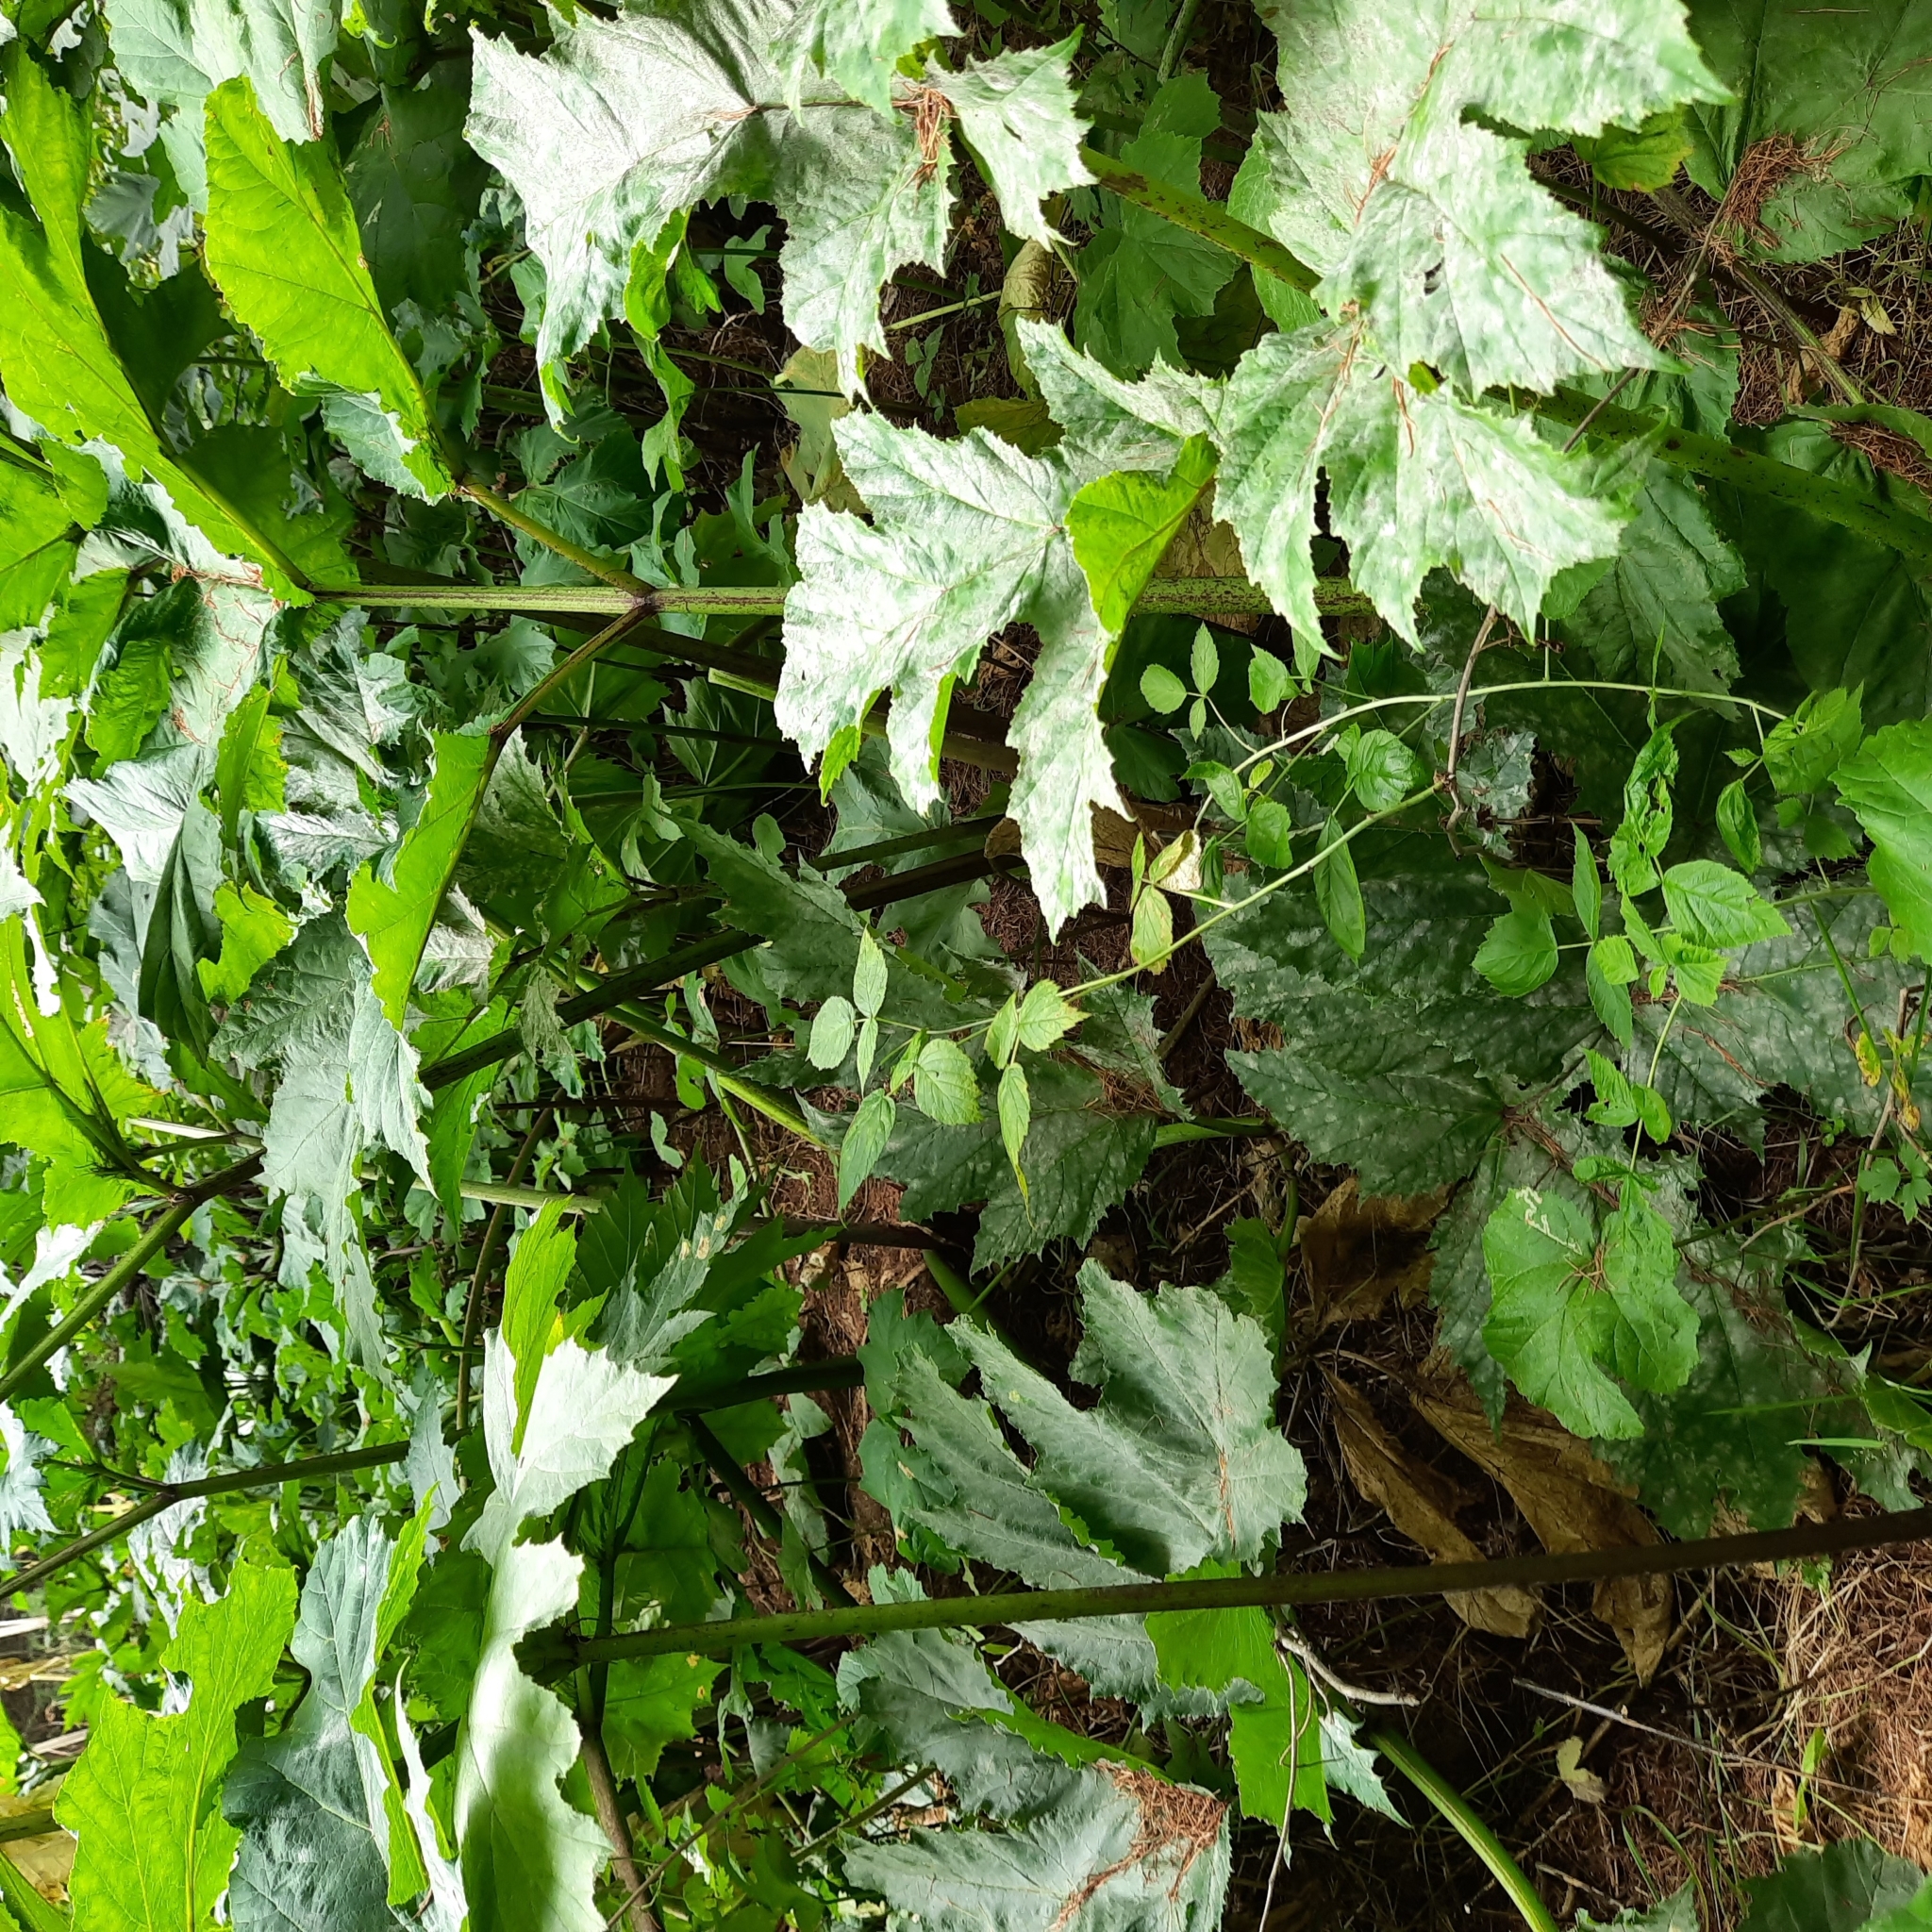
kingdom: Plantae
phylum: Tracheophyta
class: Magnoliopsida
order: Apiales
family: Apiaceae
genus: Heracleum
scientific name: Heracleum sosnowskyi
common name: Sosnowsky's hogweed
